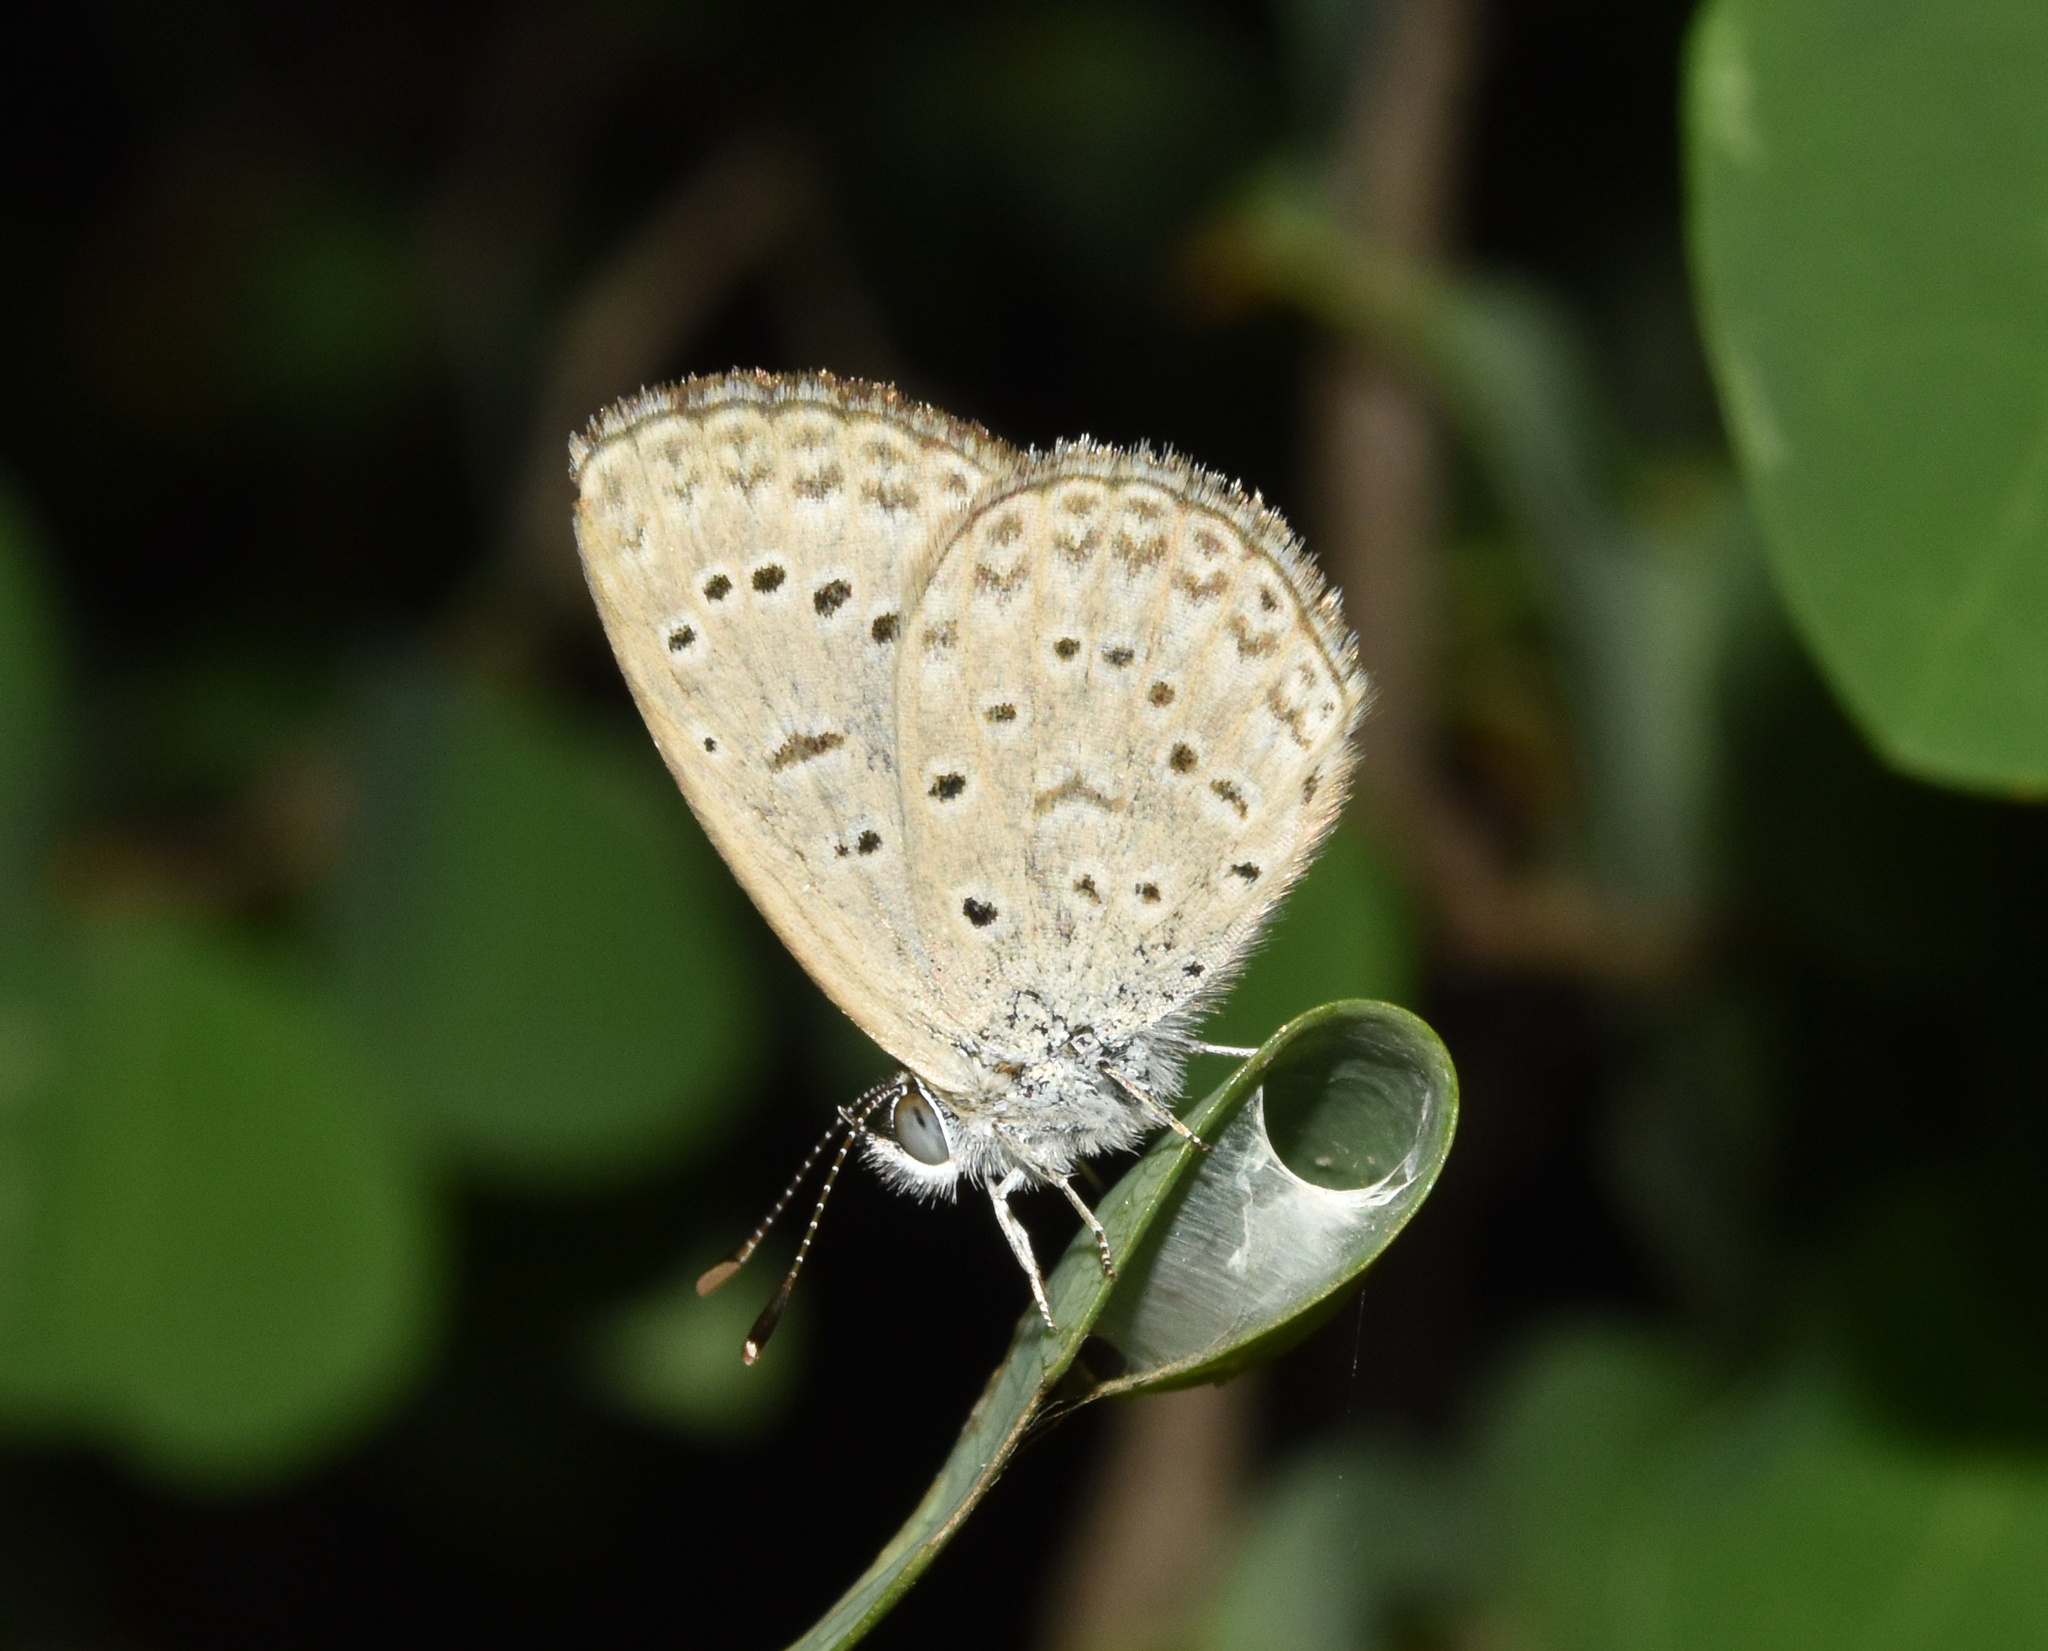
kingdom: Animalia
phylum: Arthropoda
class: Insecta
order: Lepidoptera
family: Lycaenidae
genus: Zizeeria
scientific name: Zizeeria knysna
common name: African grass blue
